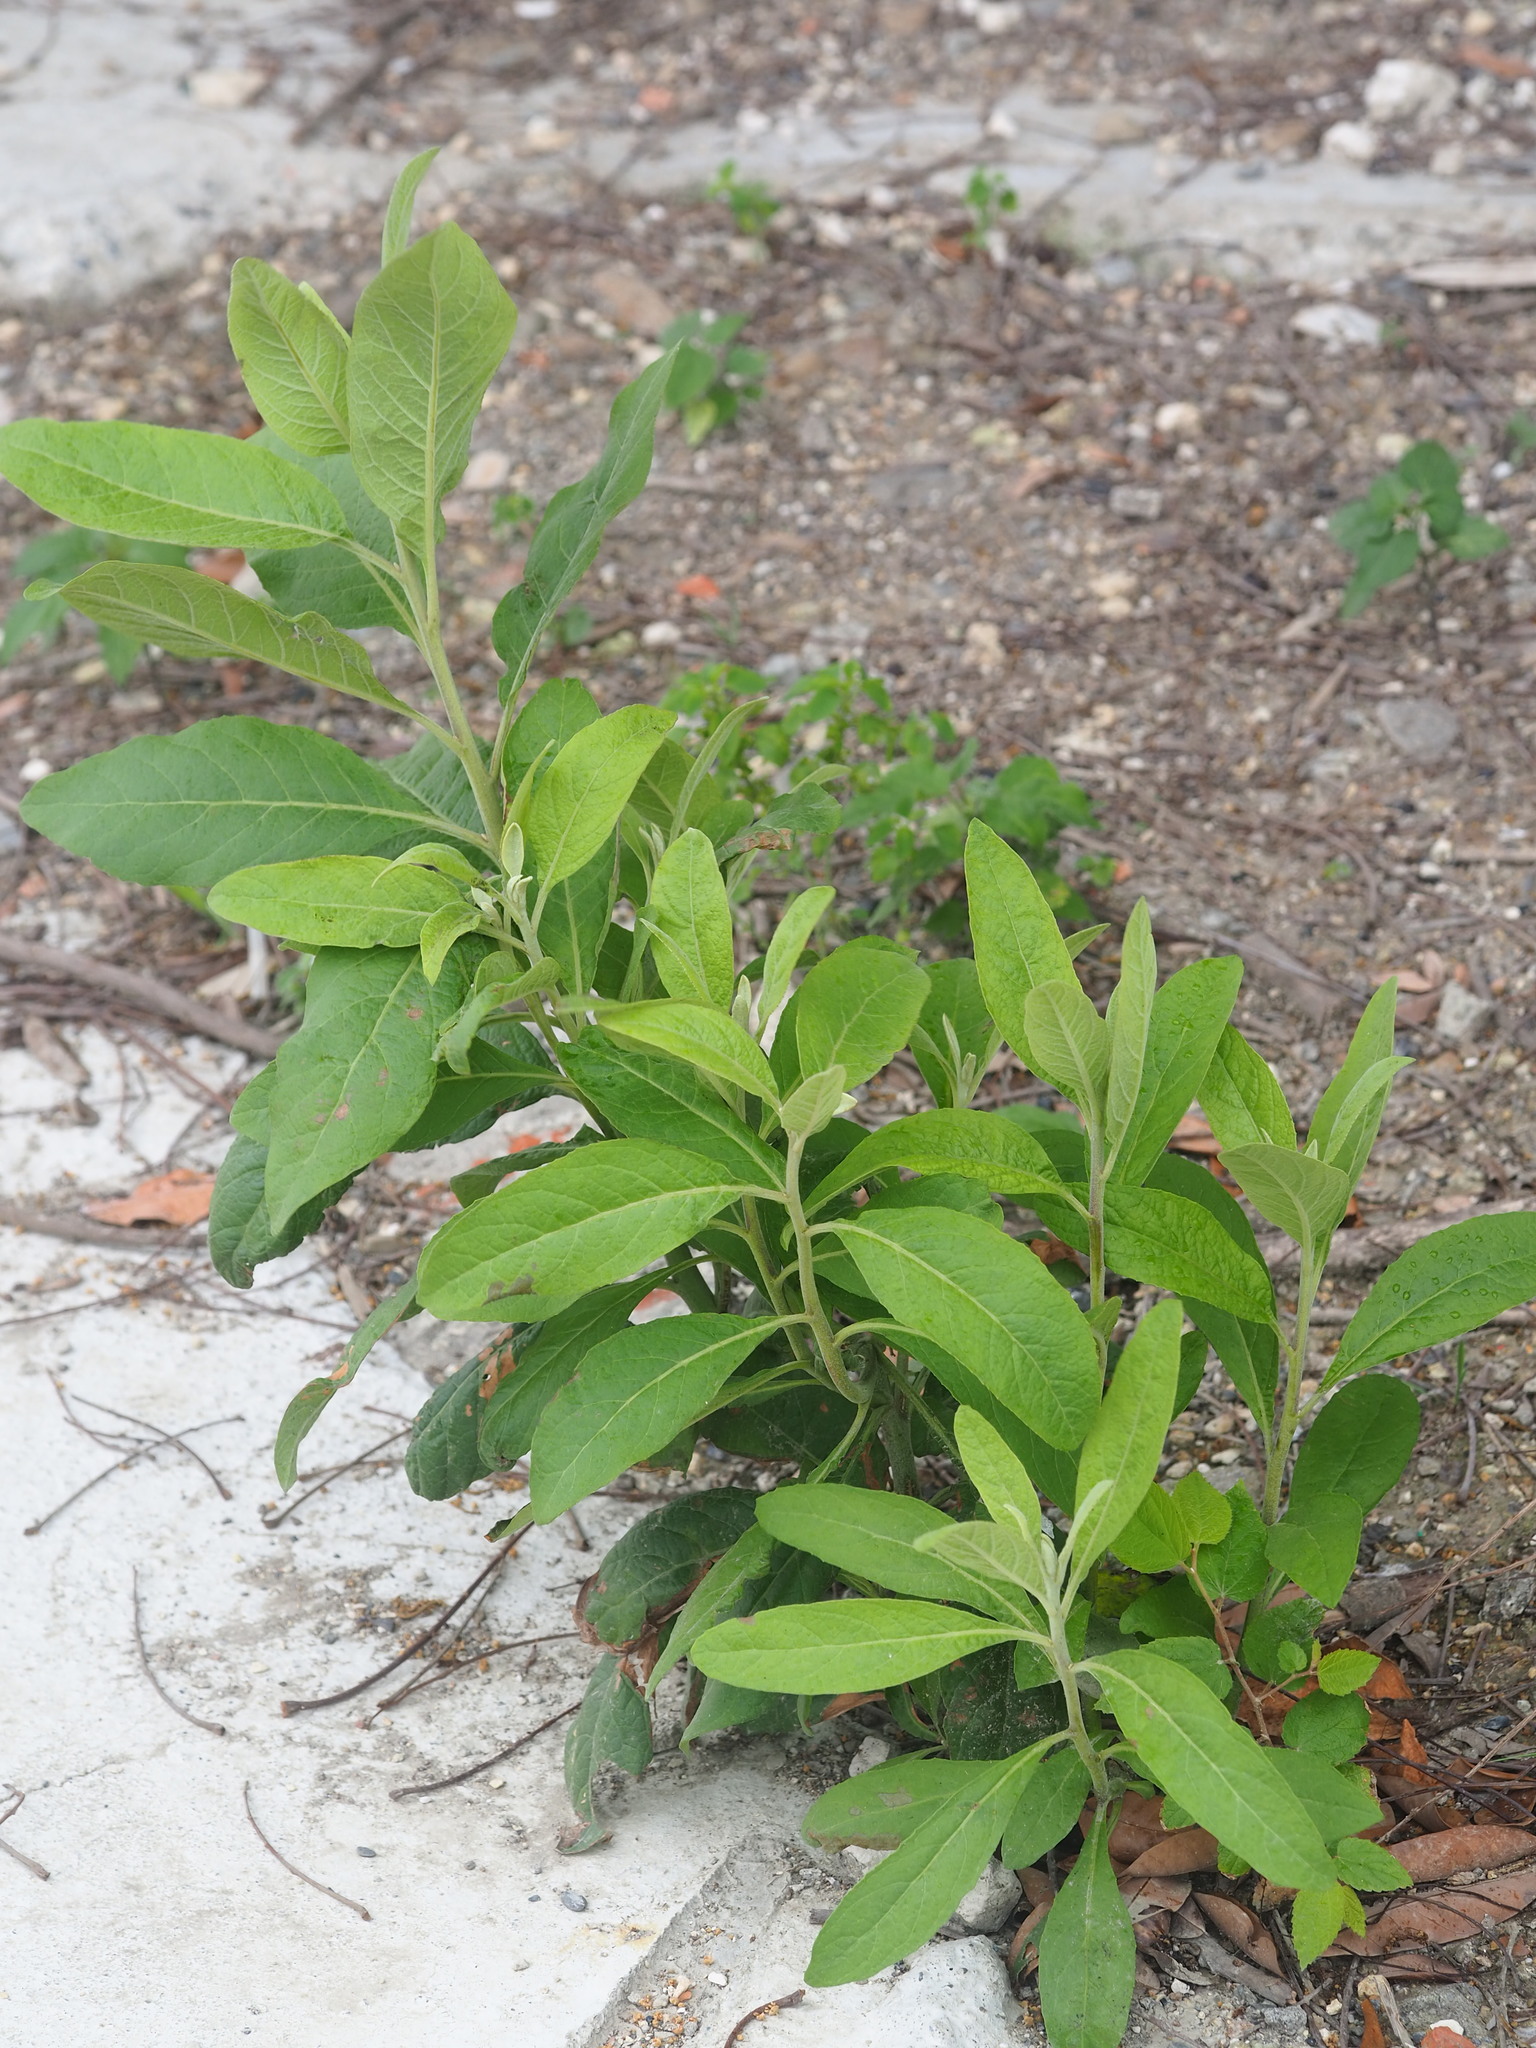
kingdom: Plantae
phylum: Tracheophyta
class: Magnoliopsida
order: Asterales
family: Asteraceae
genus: Pluchea
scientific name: Pluchea carolinensis
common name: Marsh fleabane
